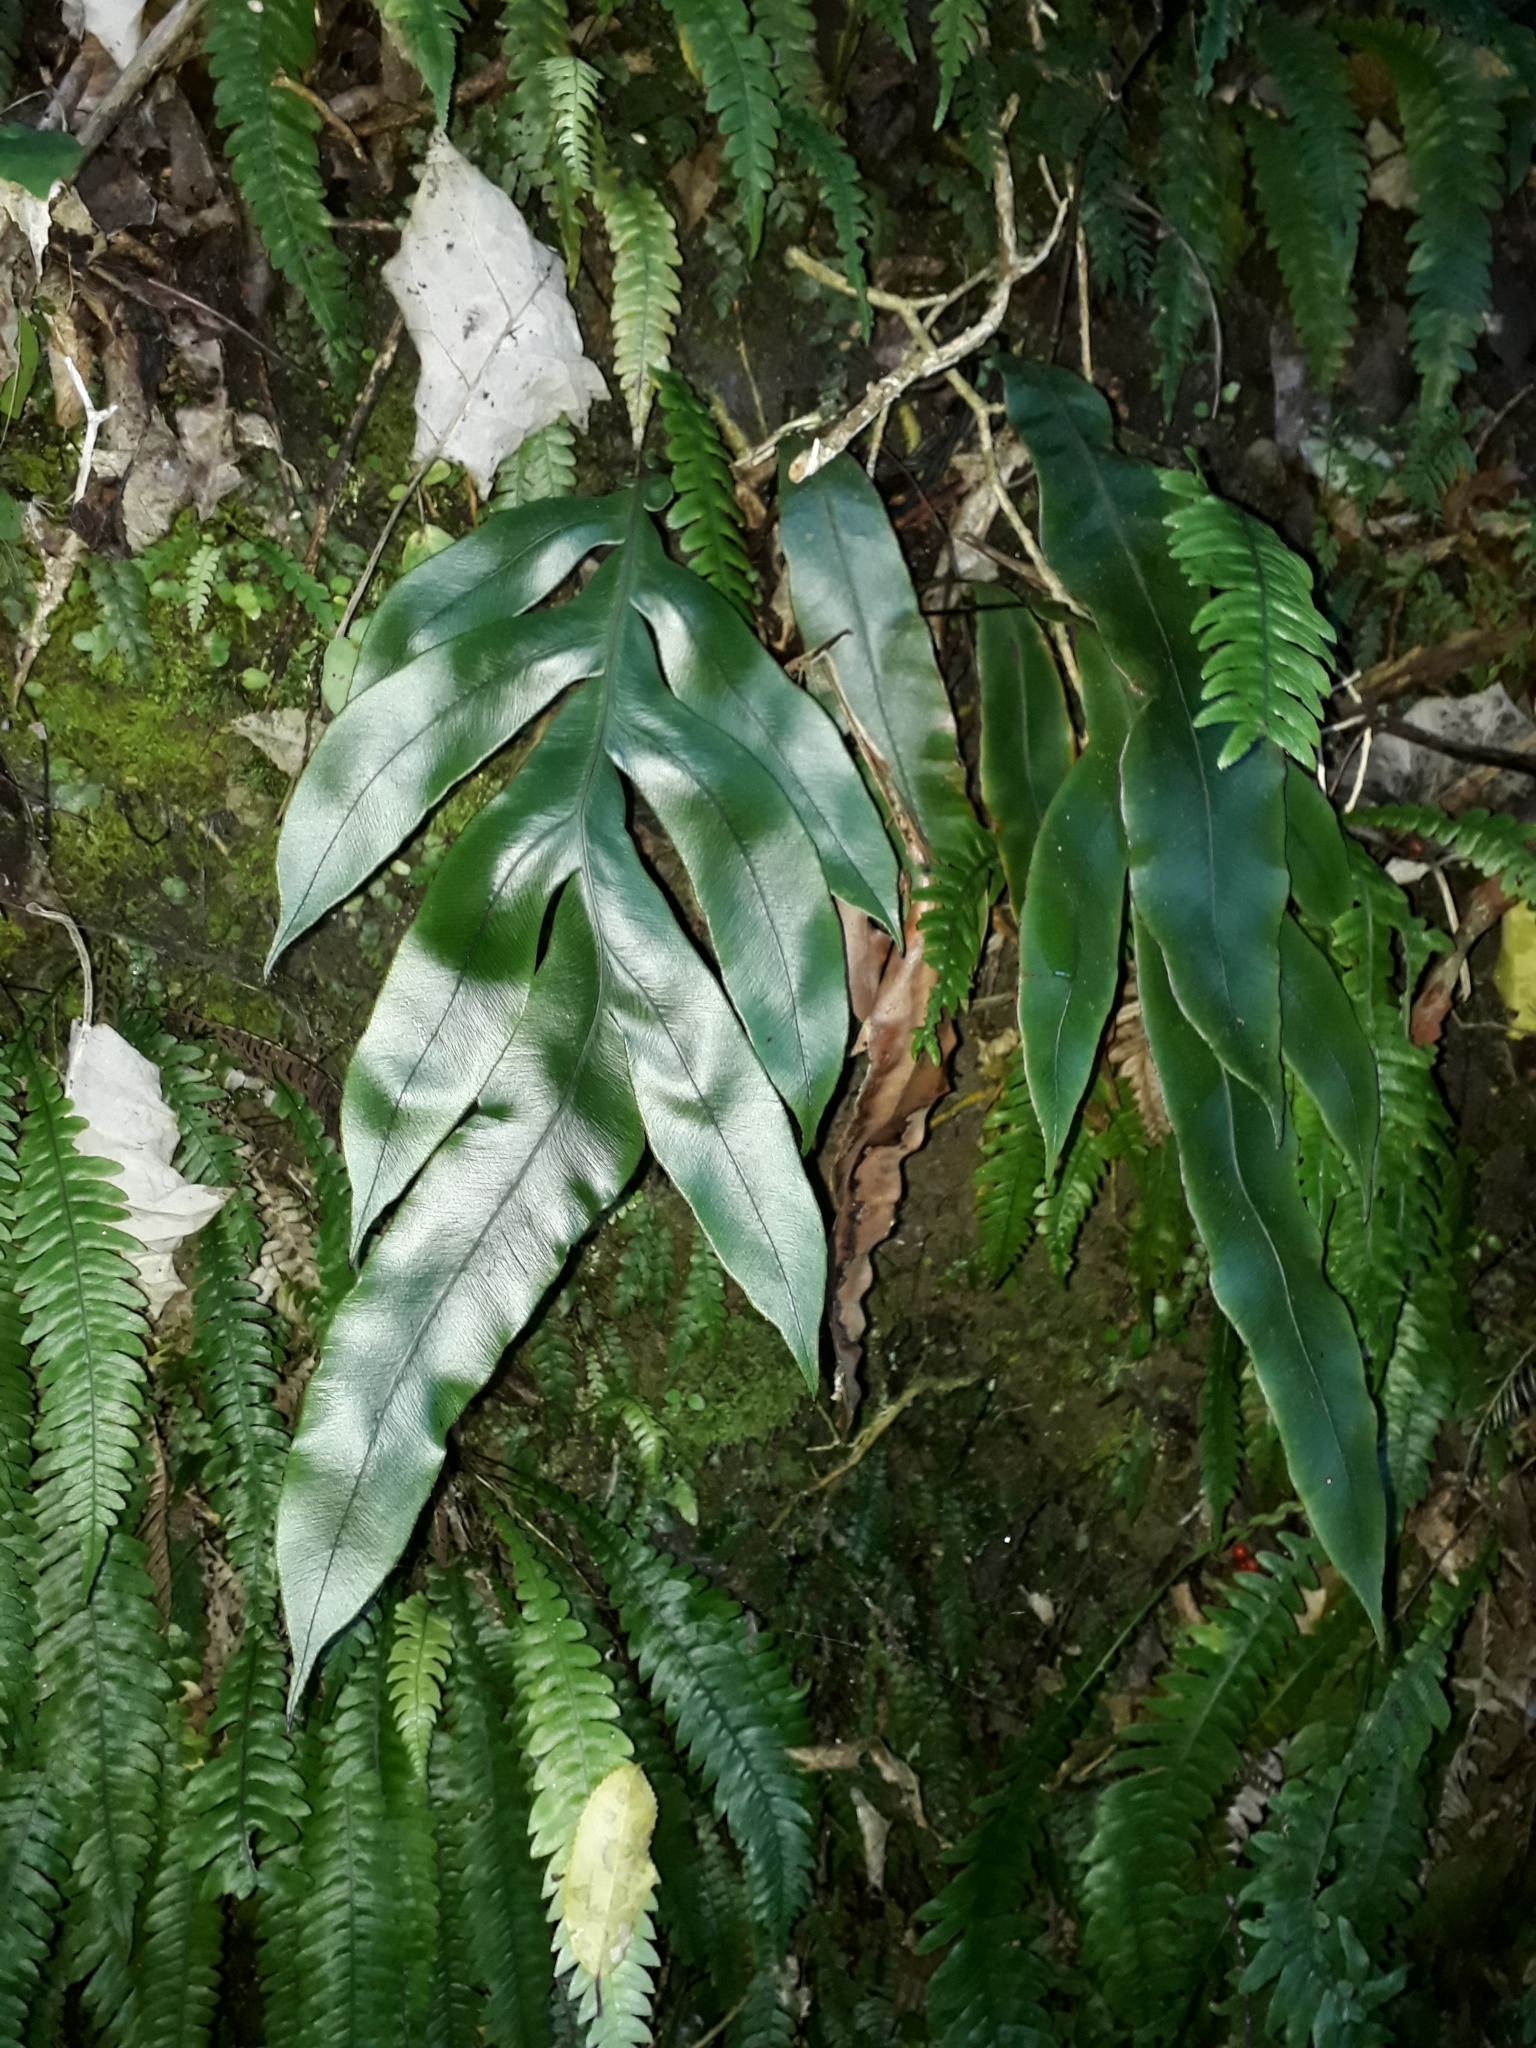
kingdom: Plantae
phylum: Tracheophyta
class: Polypodiopsida
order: Polypodiales
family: Blechnaceae
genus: Austroblechnum
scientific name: Austroblechnum colensoi
